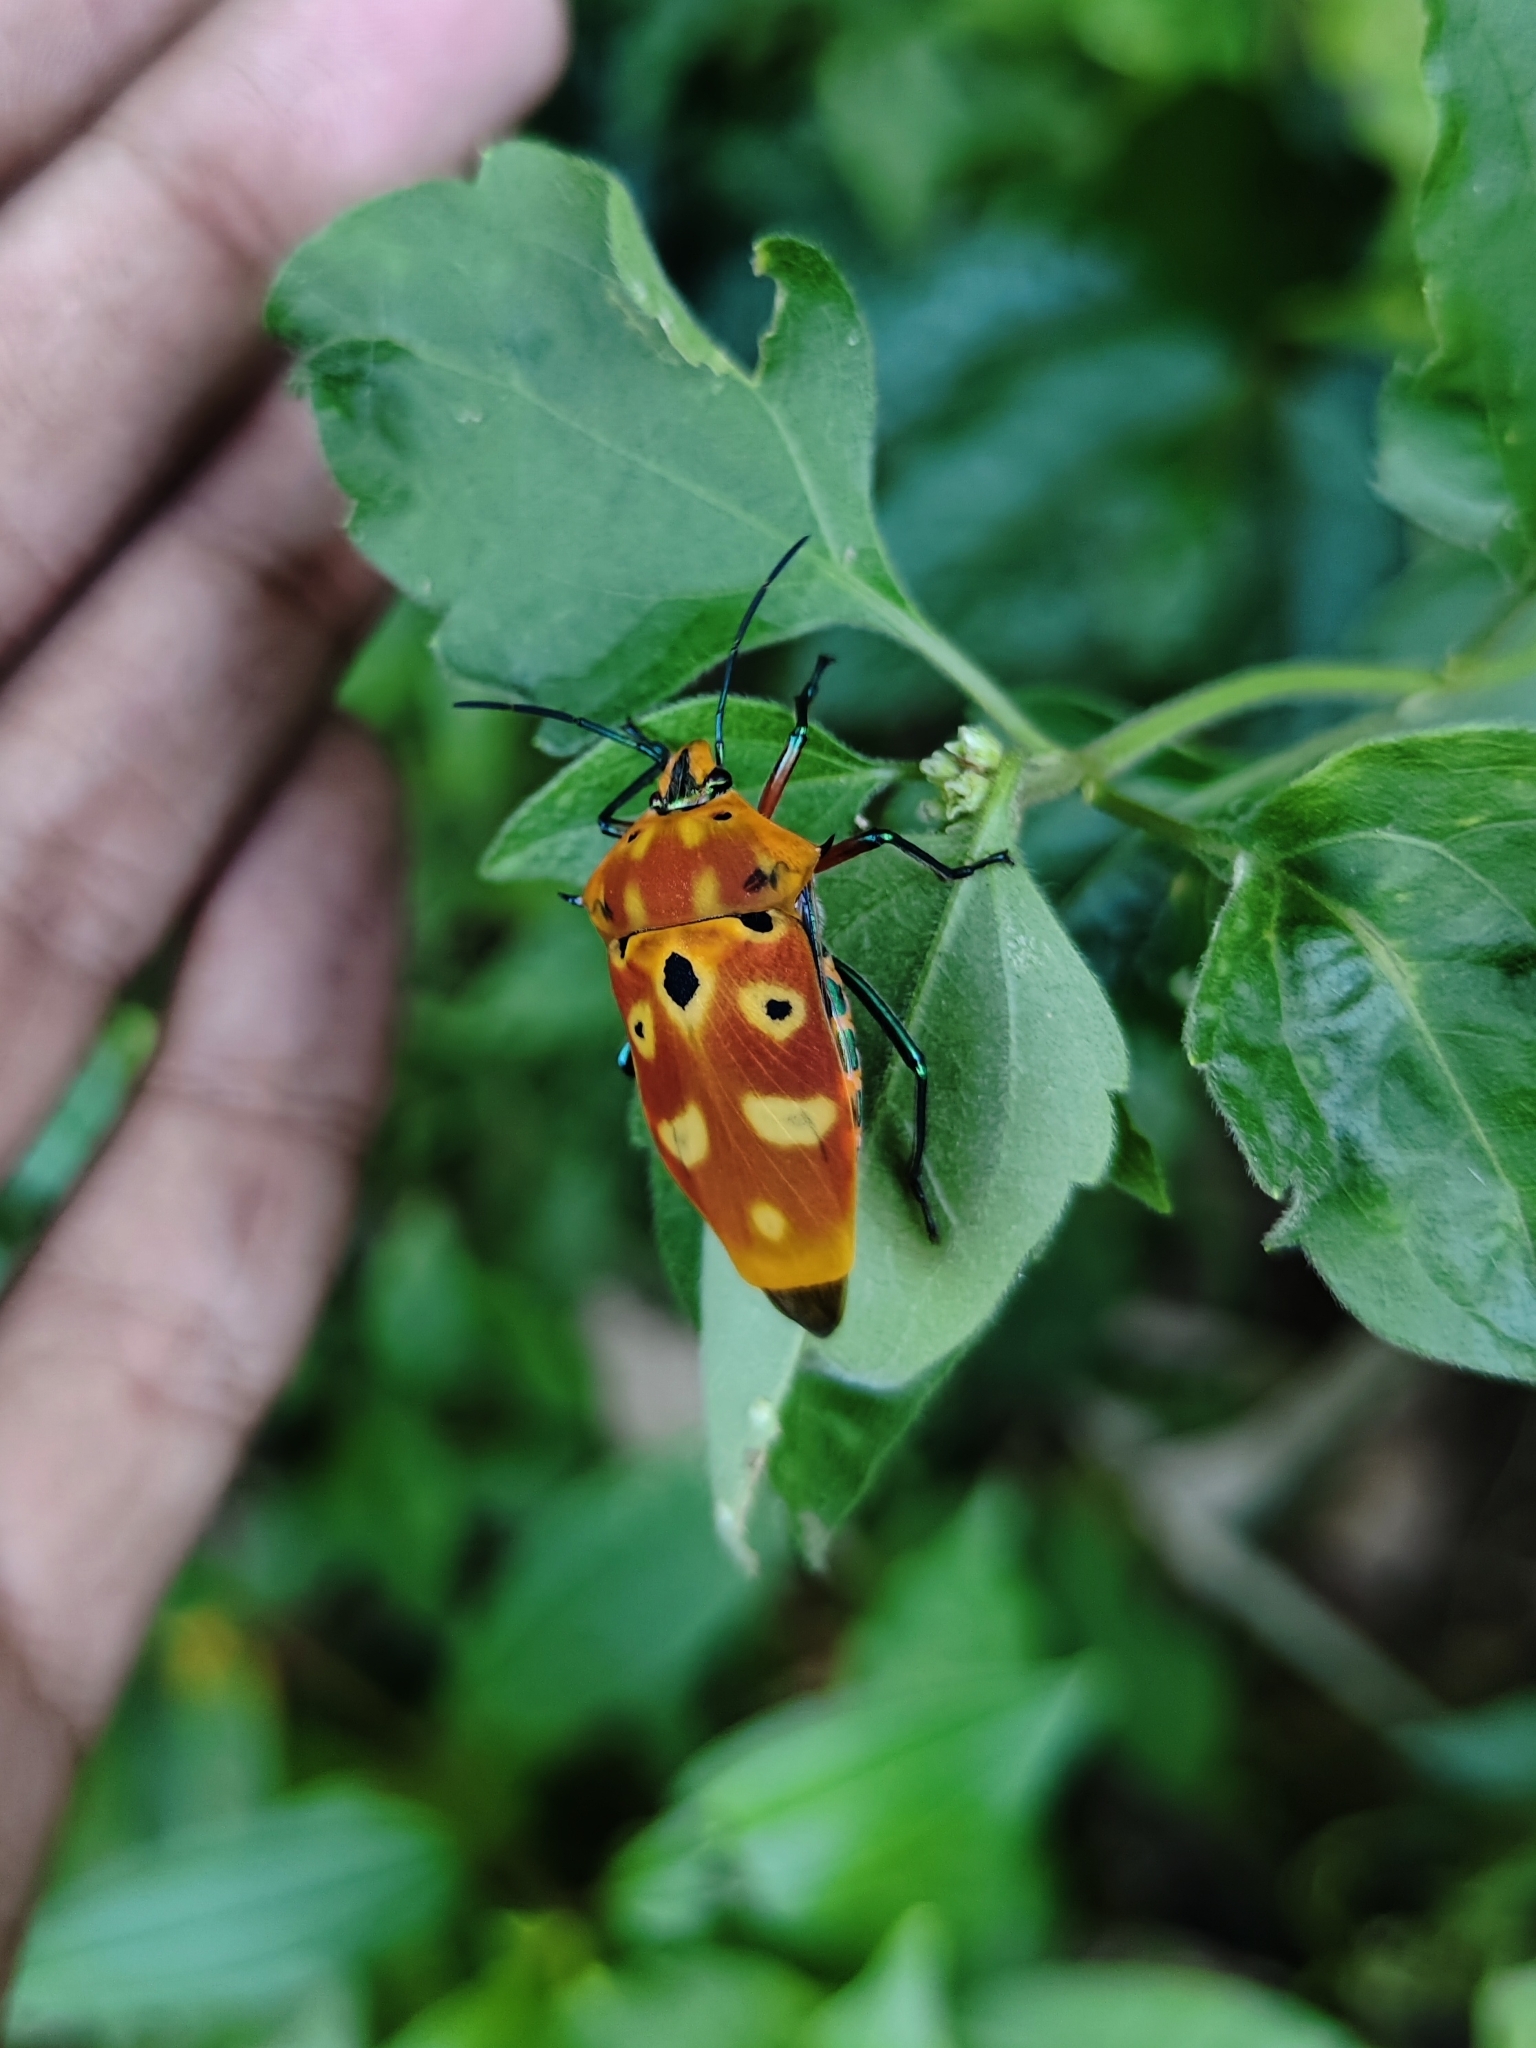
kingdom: Animalia
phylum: Arthropoda
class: Insecta
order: Hemiptera
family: Scutelleridae
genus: Cantao
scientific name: Cantao ocellatus
